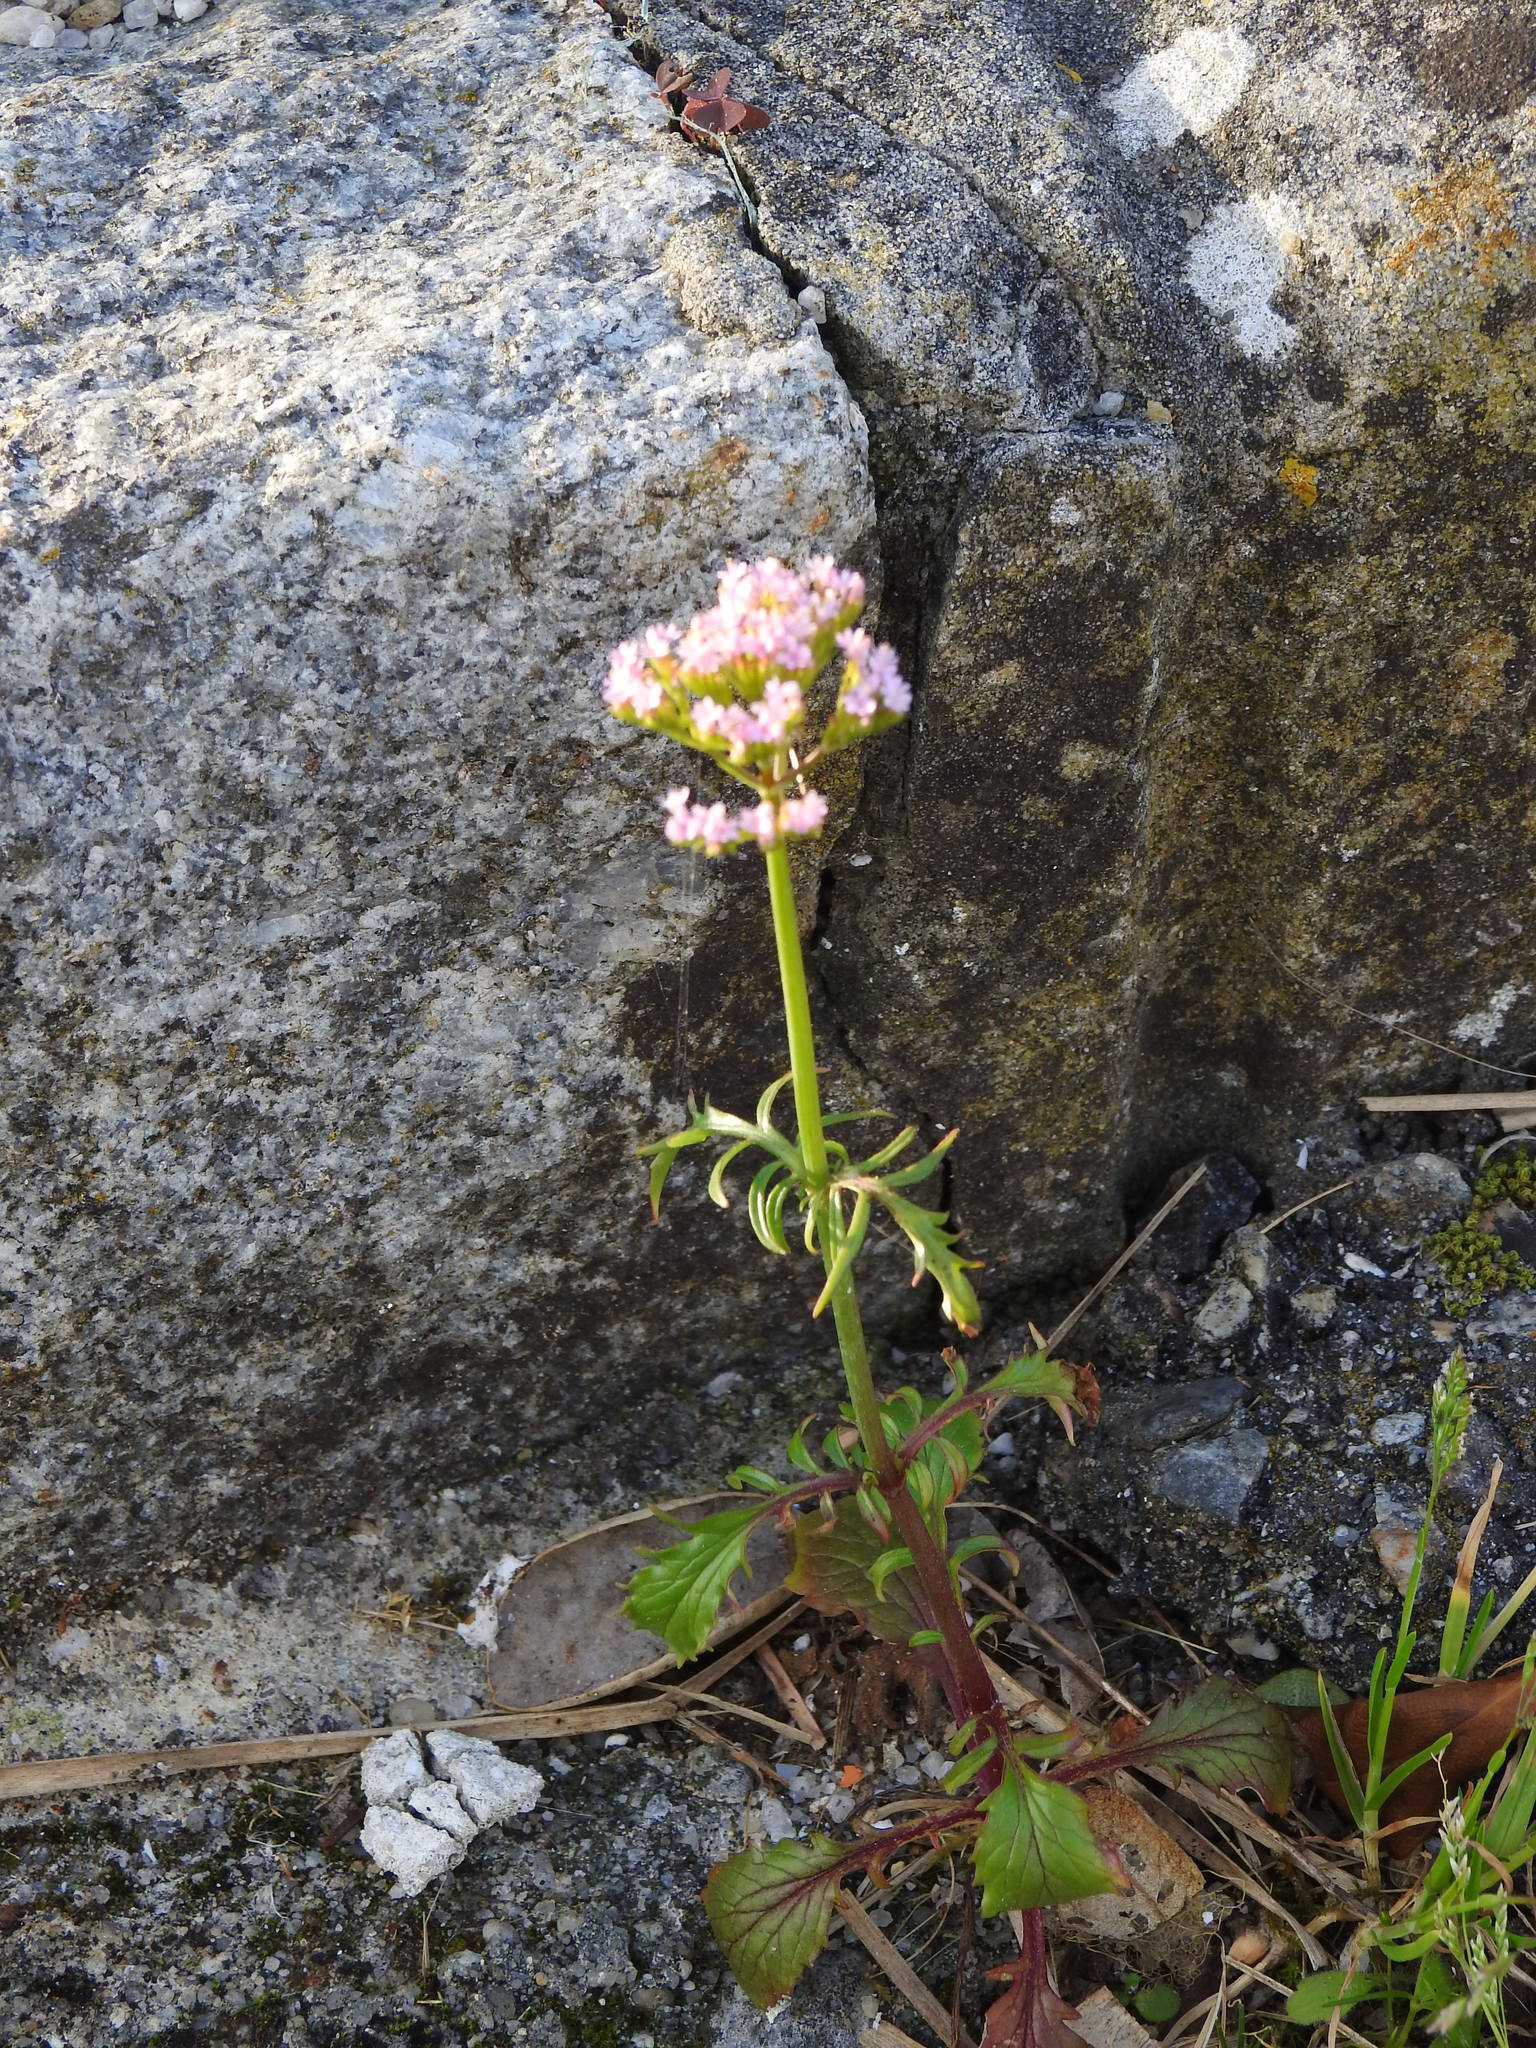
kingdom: Plantae
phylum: Tracheophyta
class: Magnoliopsida
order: Dipsacales
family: Caprifoliaceae
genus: Centranthus
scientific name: Centranthus calcitrapae
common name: Annual valerian
